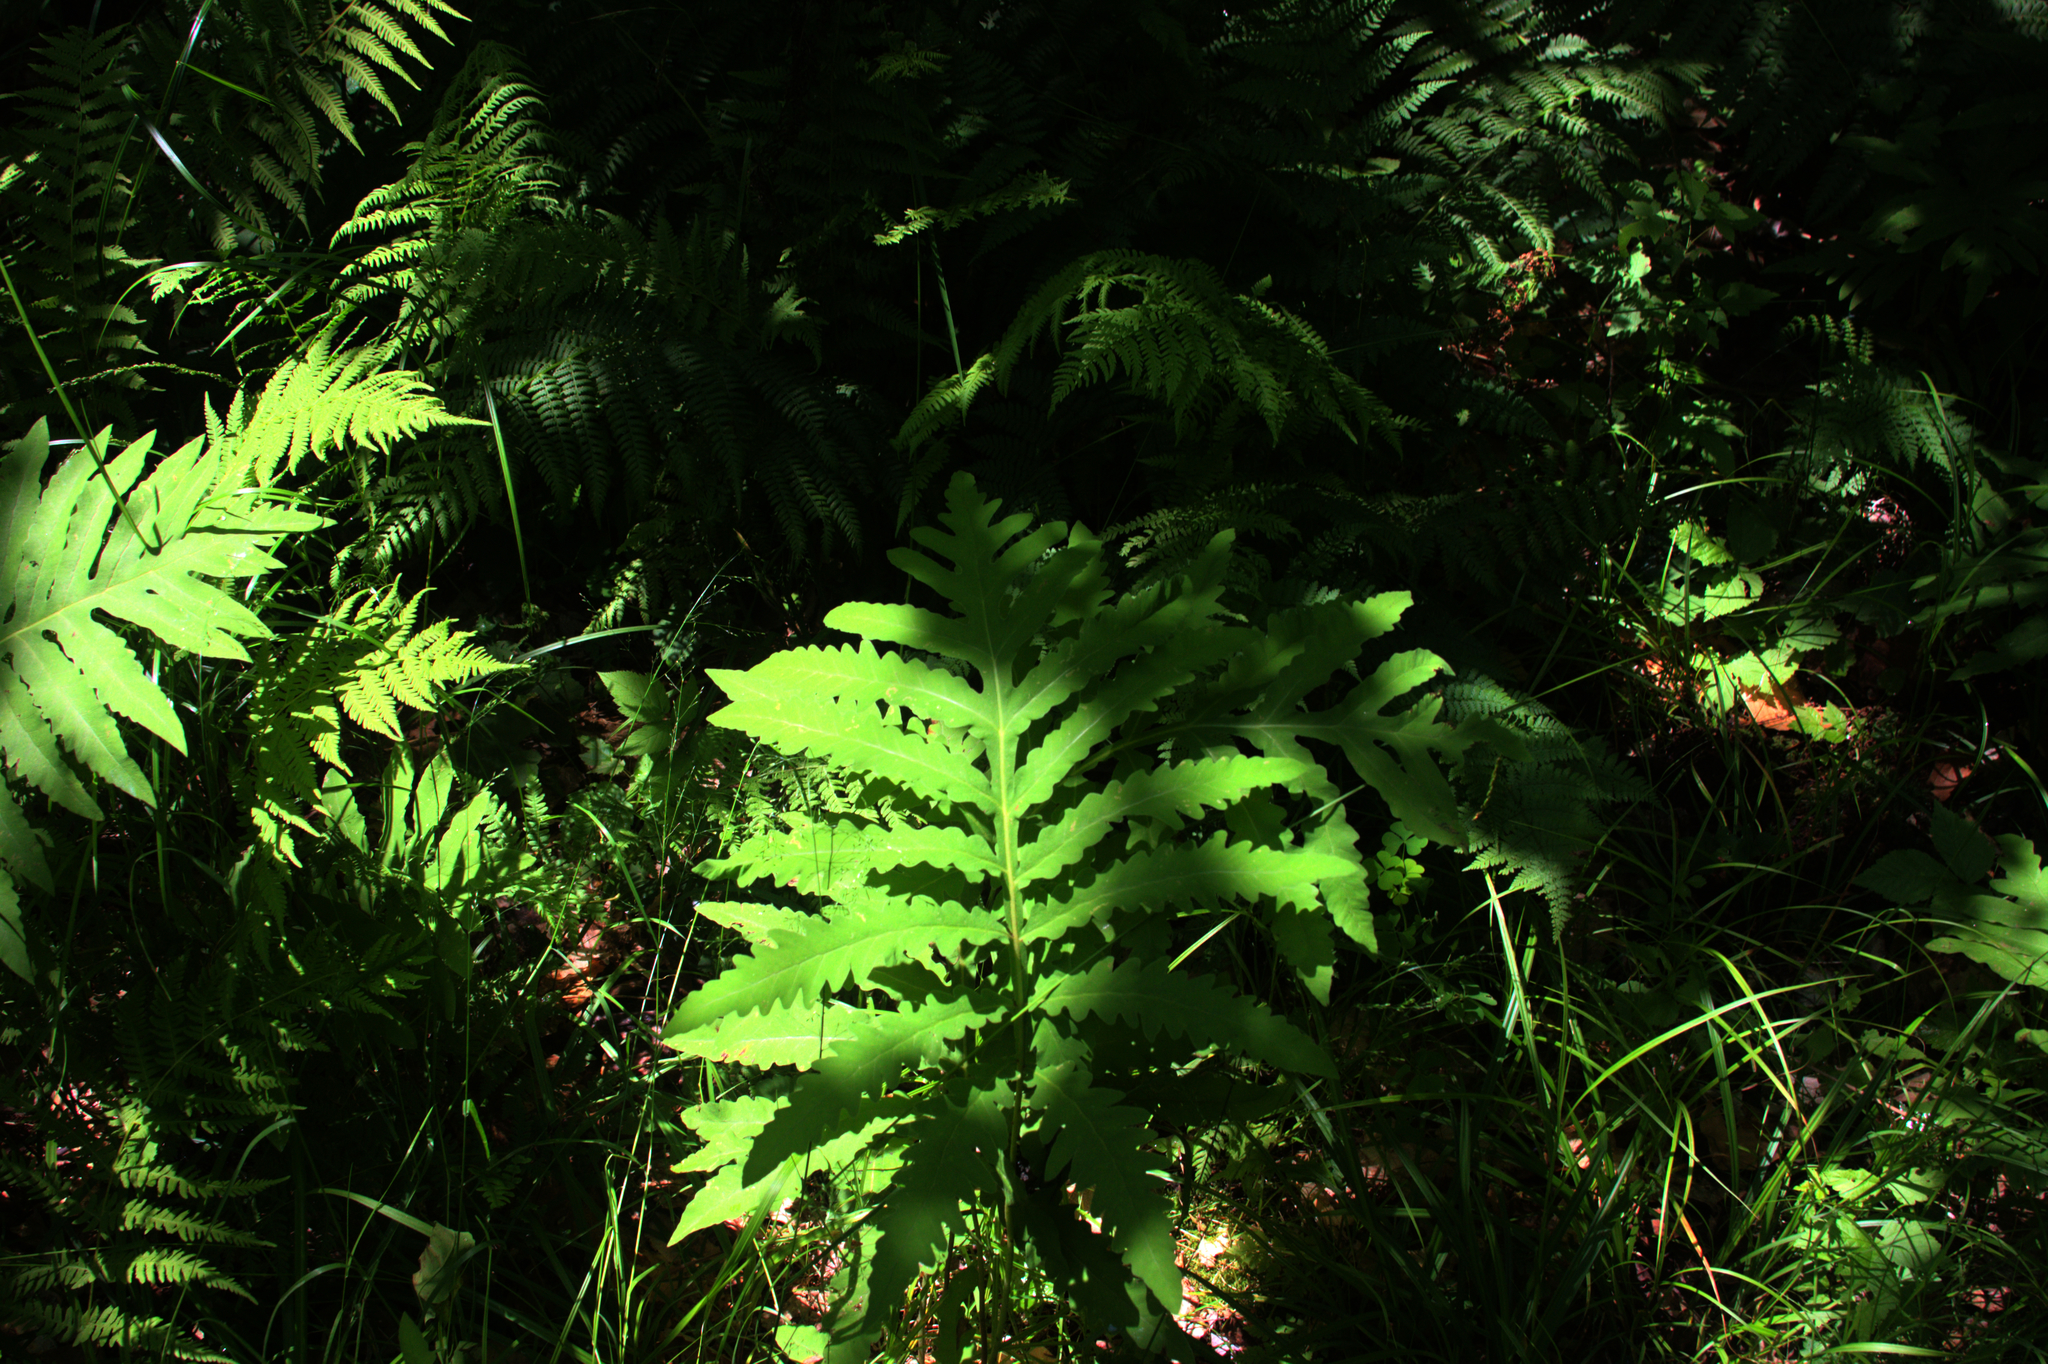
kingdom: Plantae
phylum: Tracheophyta
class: Polypodiopsida
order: Polypodiales
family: Onocleaceae
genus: Onoclea
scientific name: Onoclea sensibilis
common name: Sensitive fern
